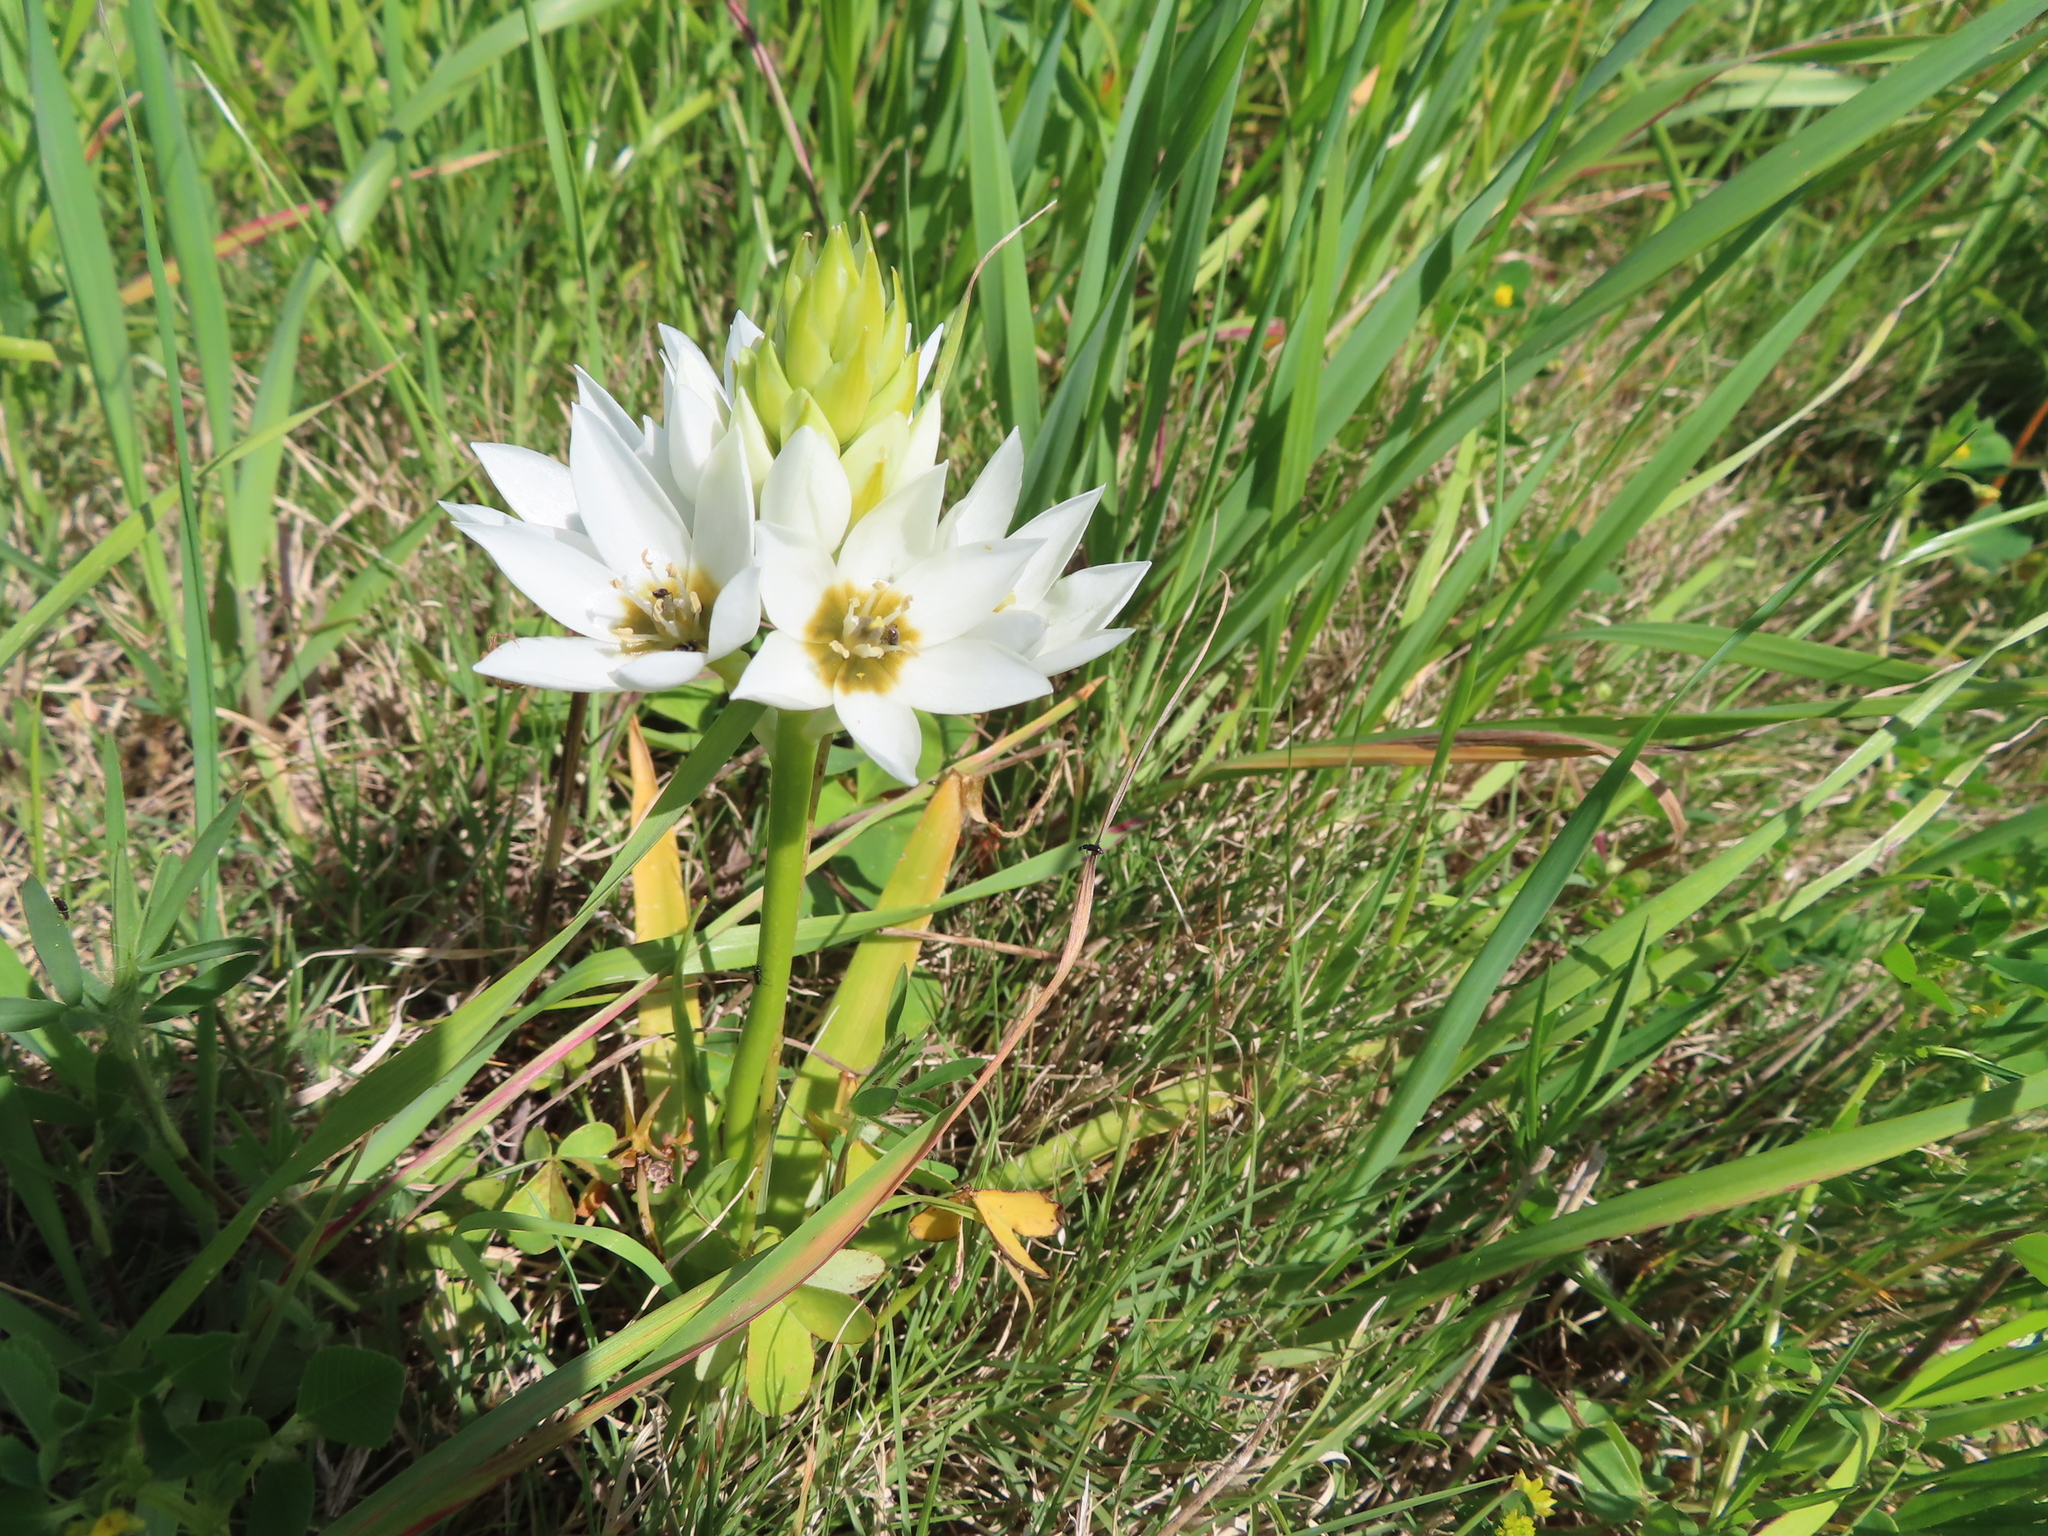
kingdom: Plantae
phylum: Tracheophyta
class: Liliopsida
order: Asparagales
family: Asparagaceae
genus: Ornithogalum
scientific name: Ornithogalum thyrsoides
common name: Chincherinchee
